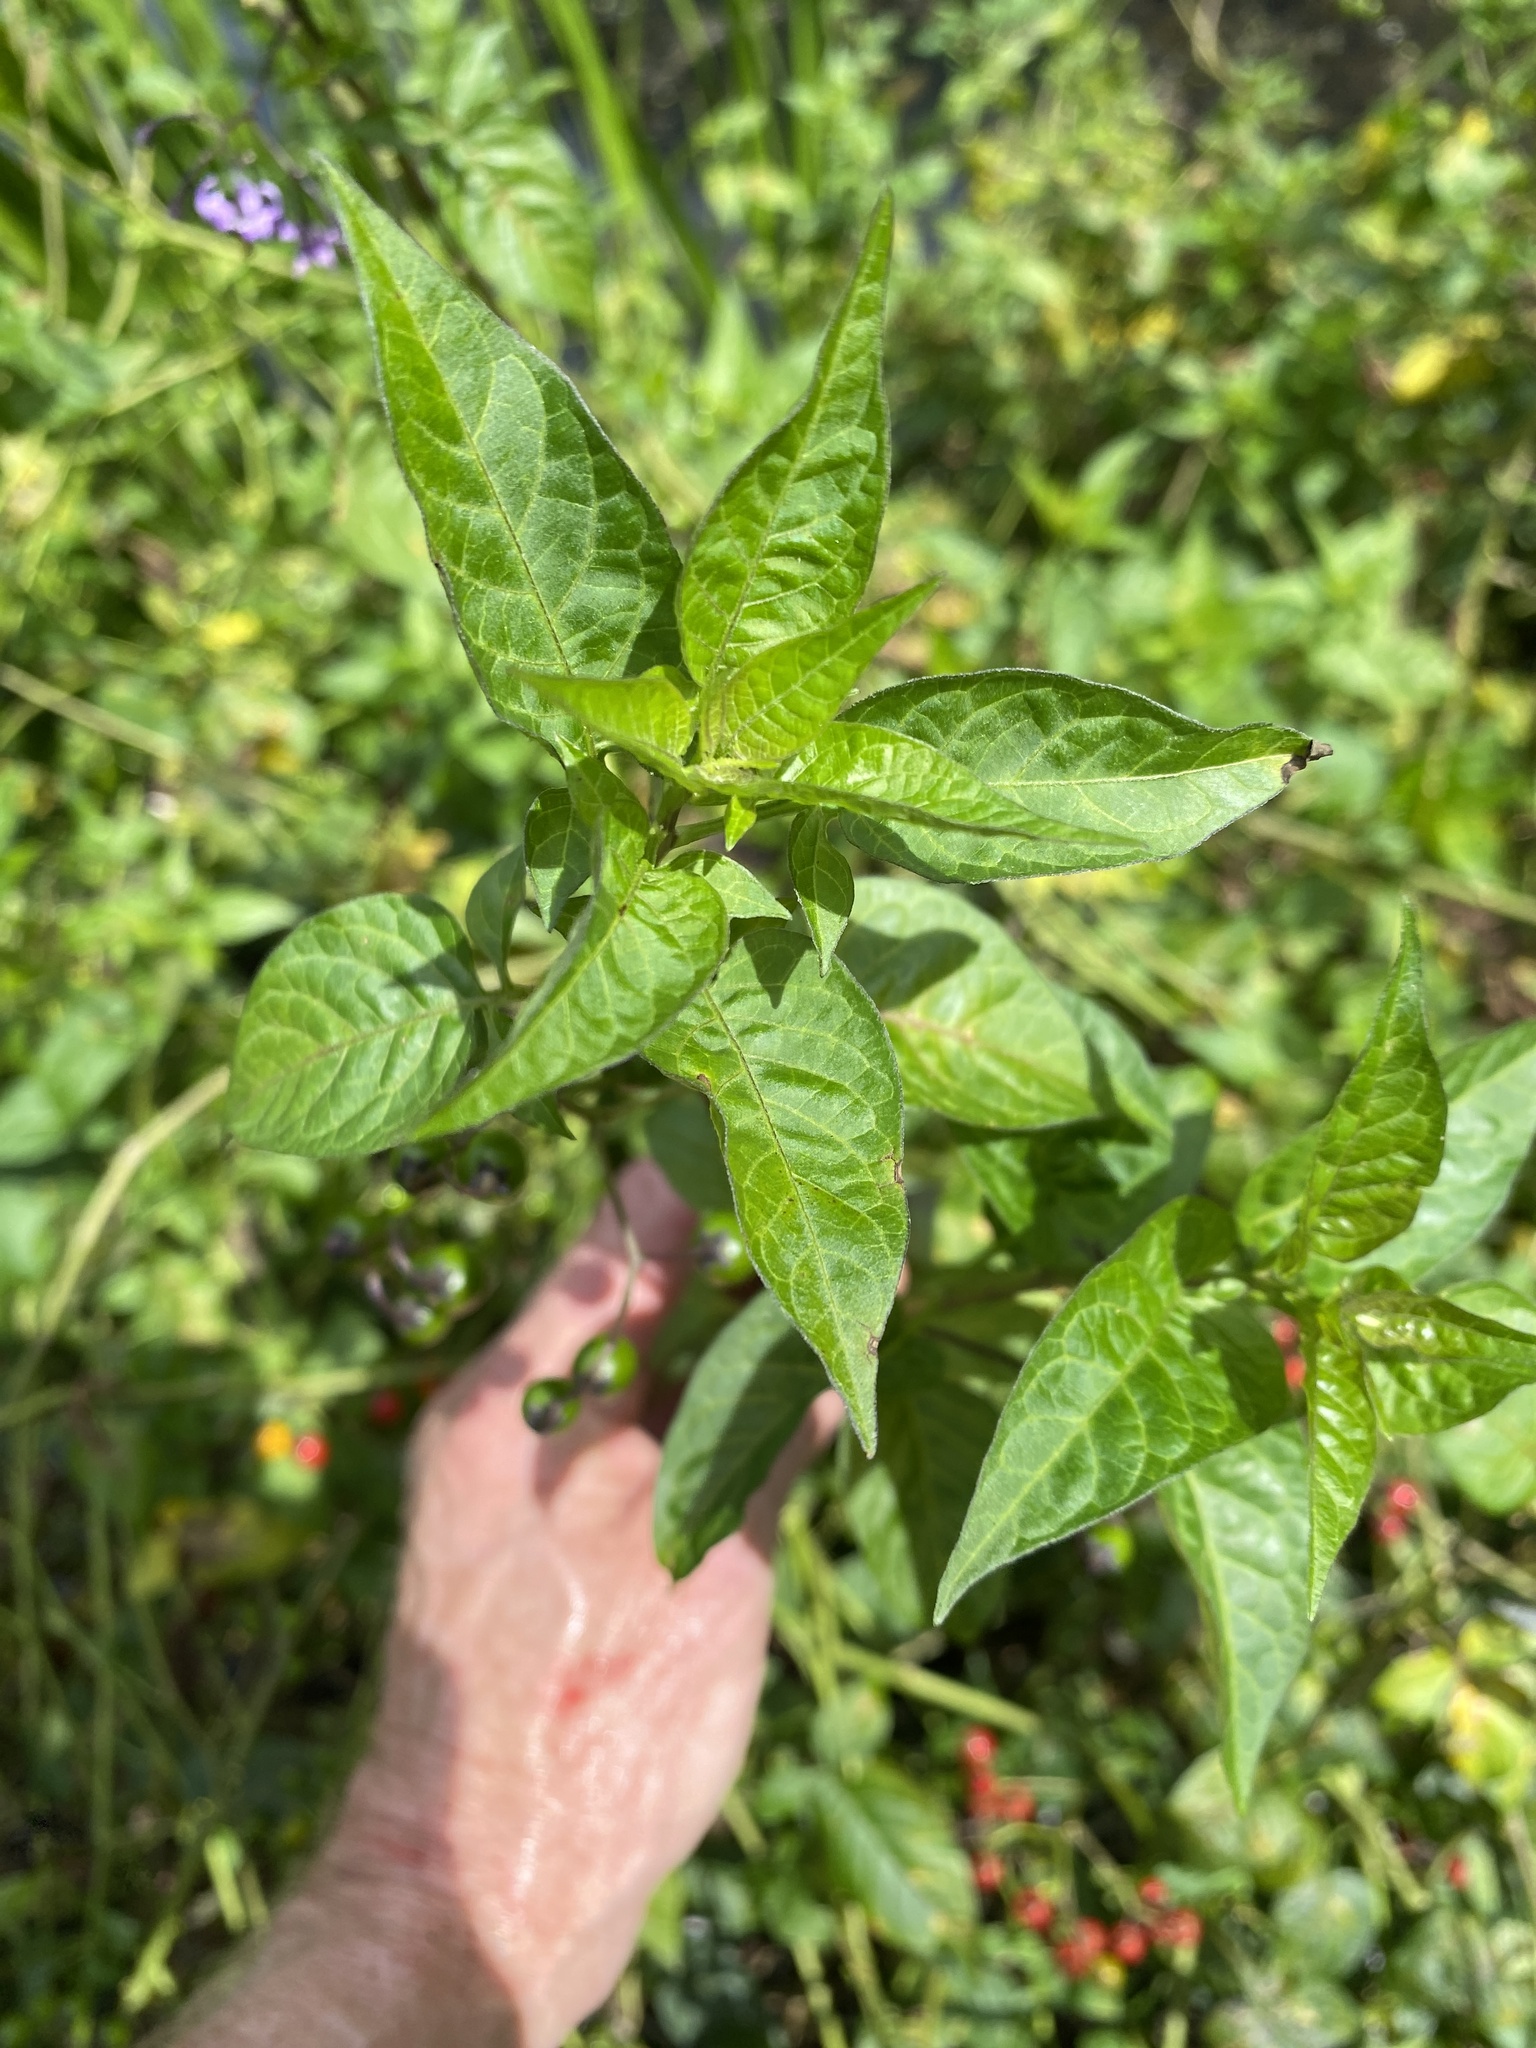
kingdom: Plantae
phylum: Tracheophyta
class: Magnoliopsida
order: Solanales
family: Solanaceae
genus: Solanum
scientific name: Solanum dulcamara
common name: Climbing nightshade
